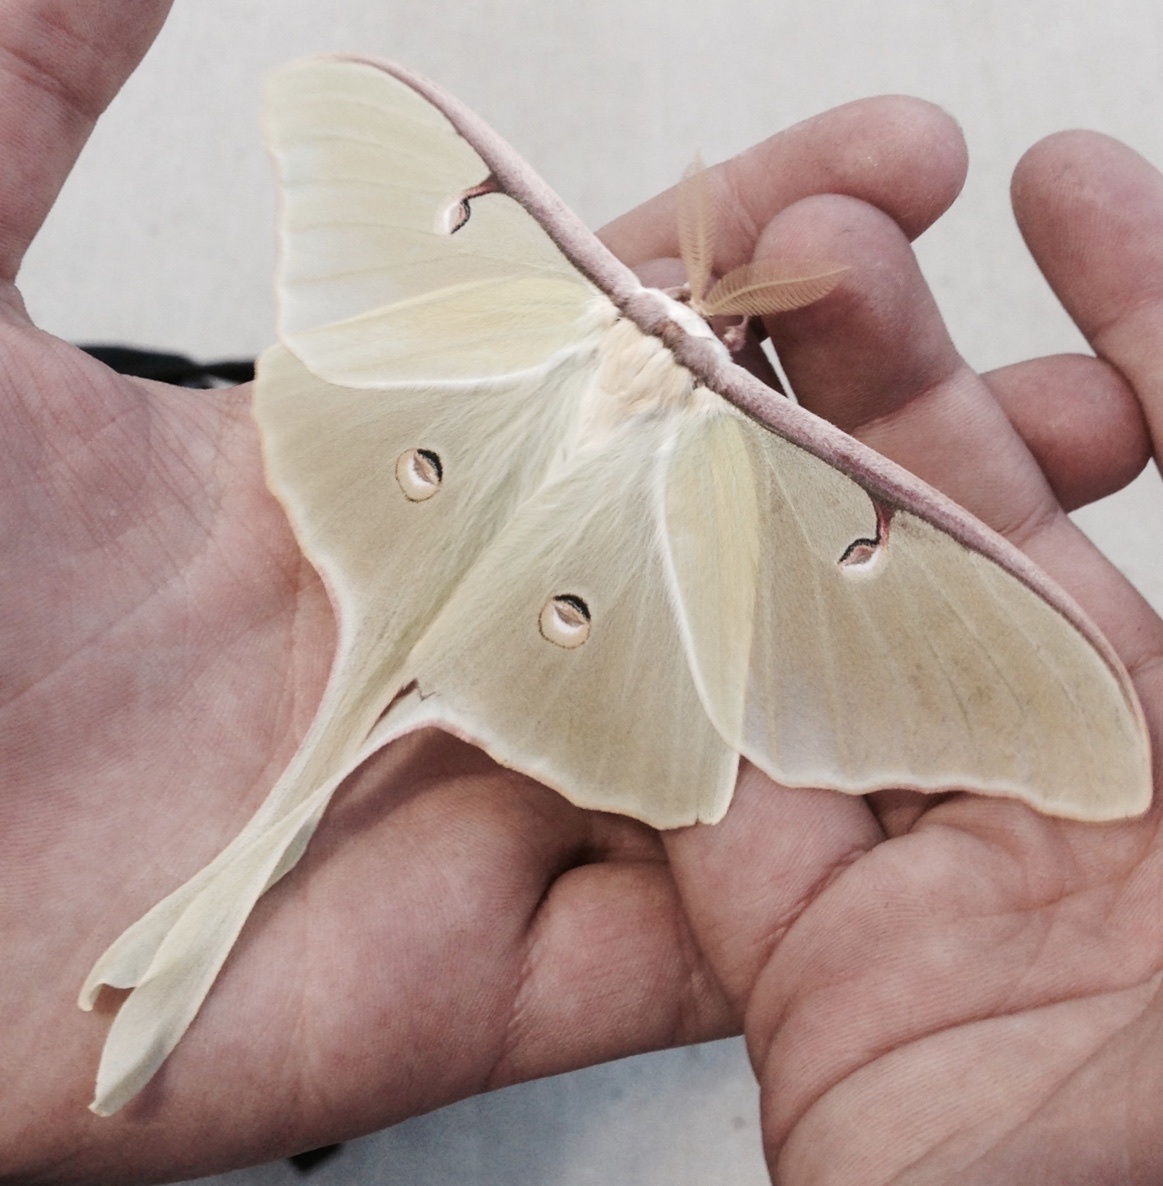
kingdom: Animalia
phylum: Arthropoda
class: Insecta
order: Lepidoptera
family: Saturniidae
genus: Actias
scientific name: Actias luna
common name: Luna moth
